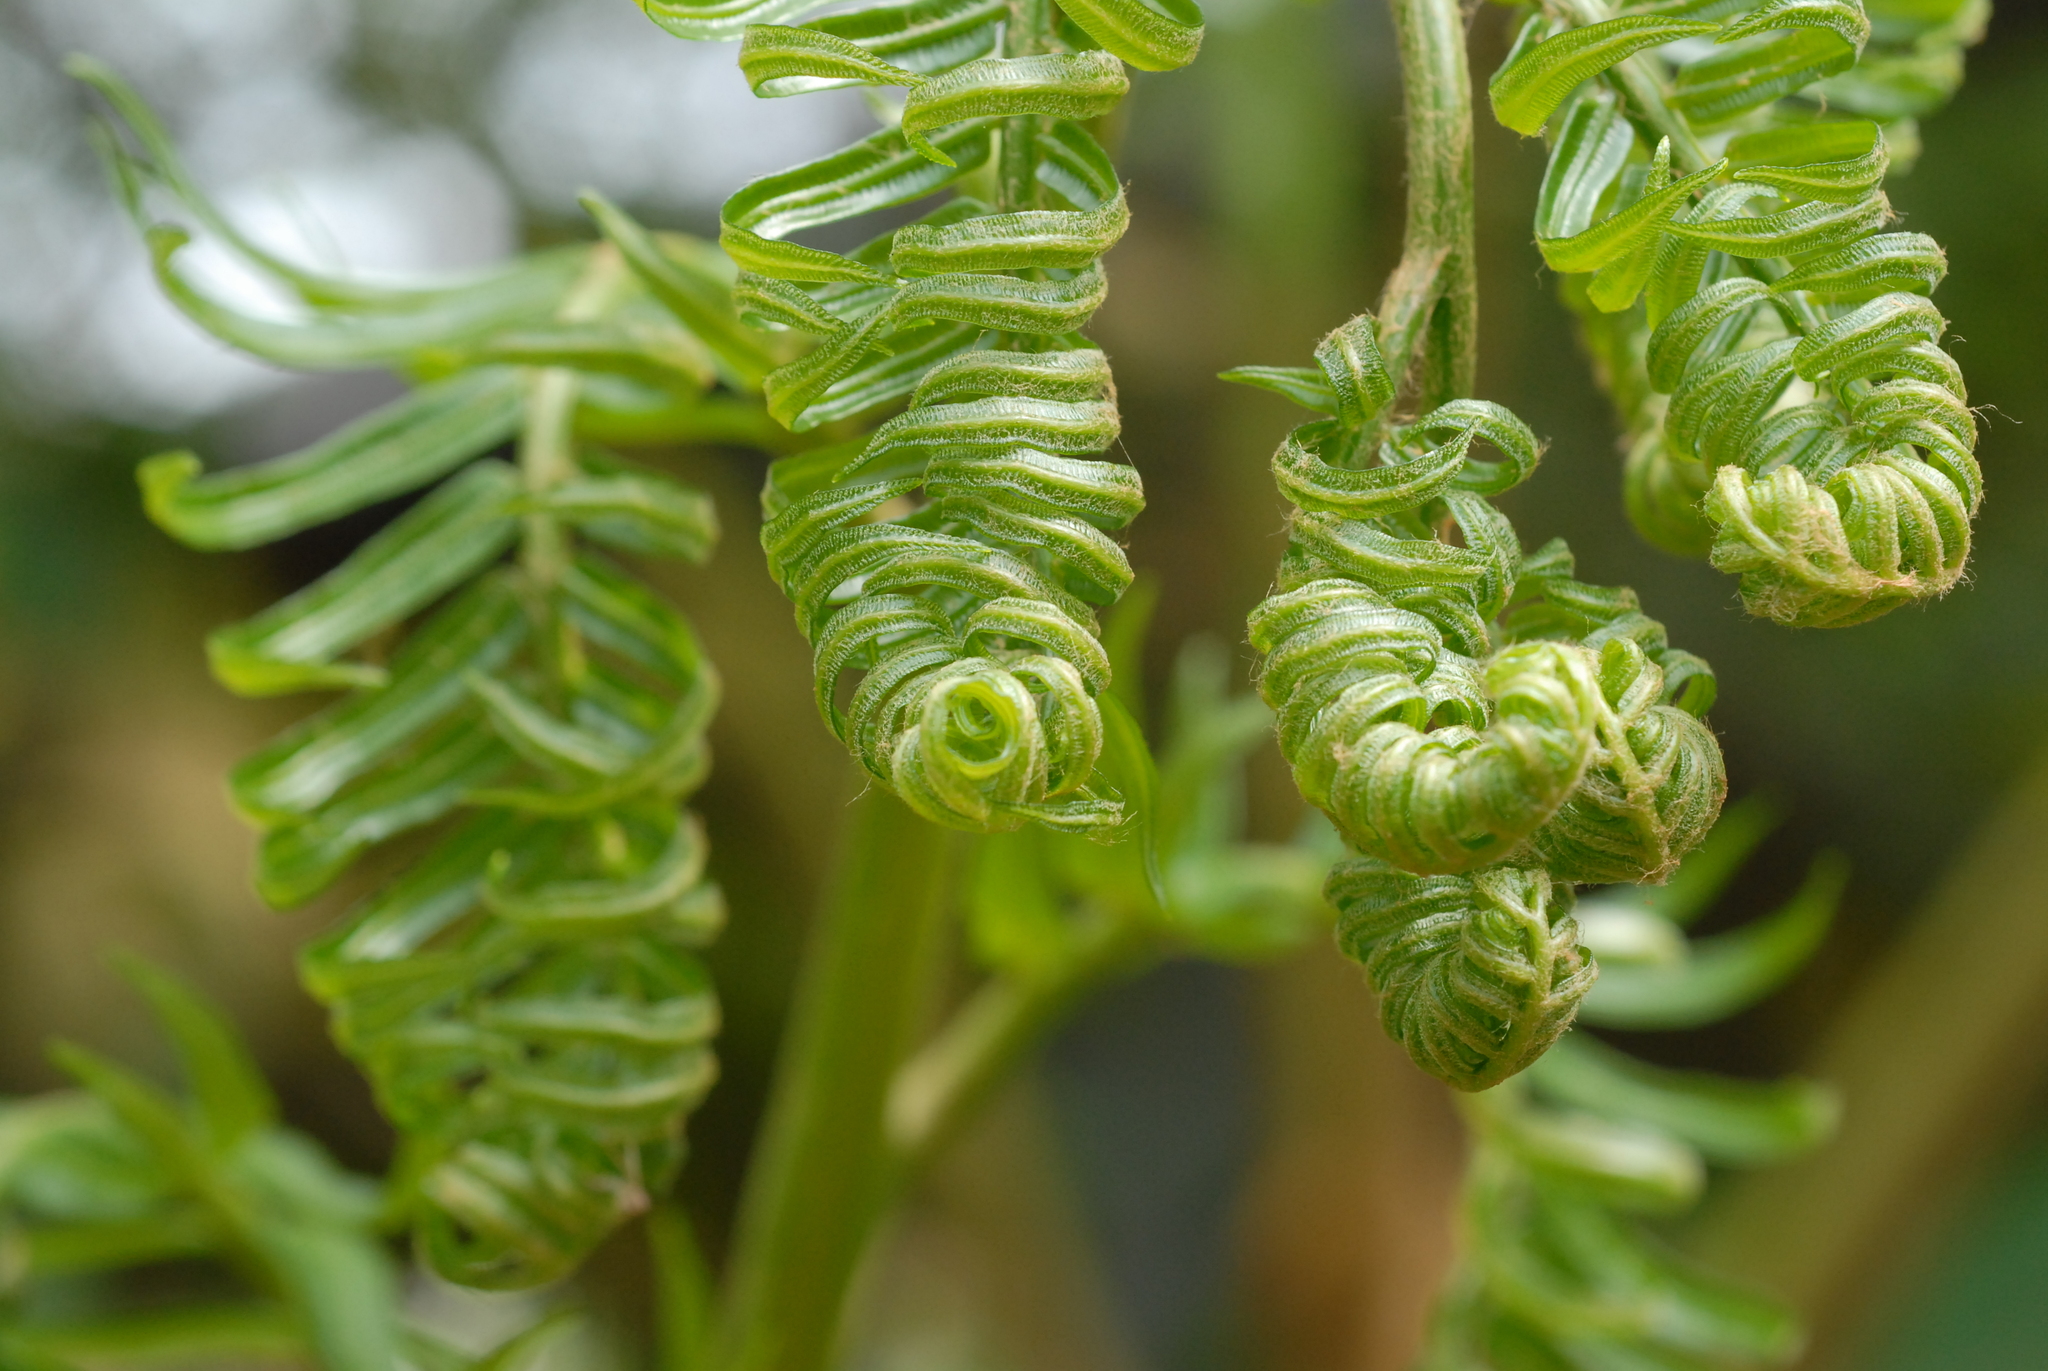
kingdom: Plantae
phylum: Tracheophyta
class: Polypodiopsida
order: Marattiales
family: Marattiaceae
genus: Angiopteris
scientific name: Angiopteris lygodiifolia
